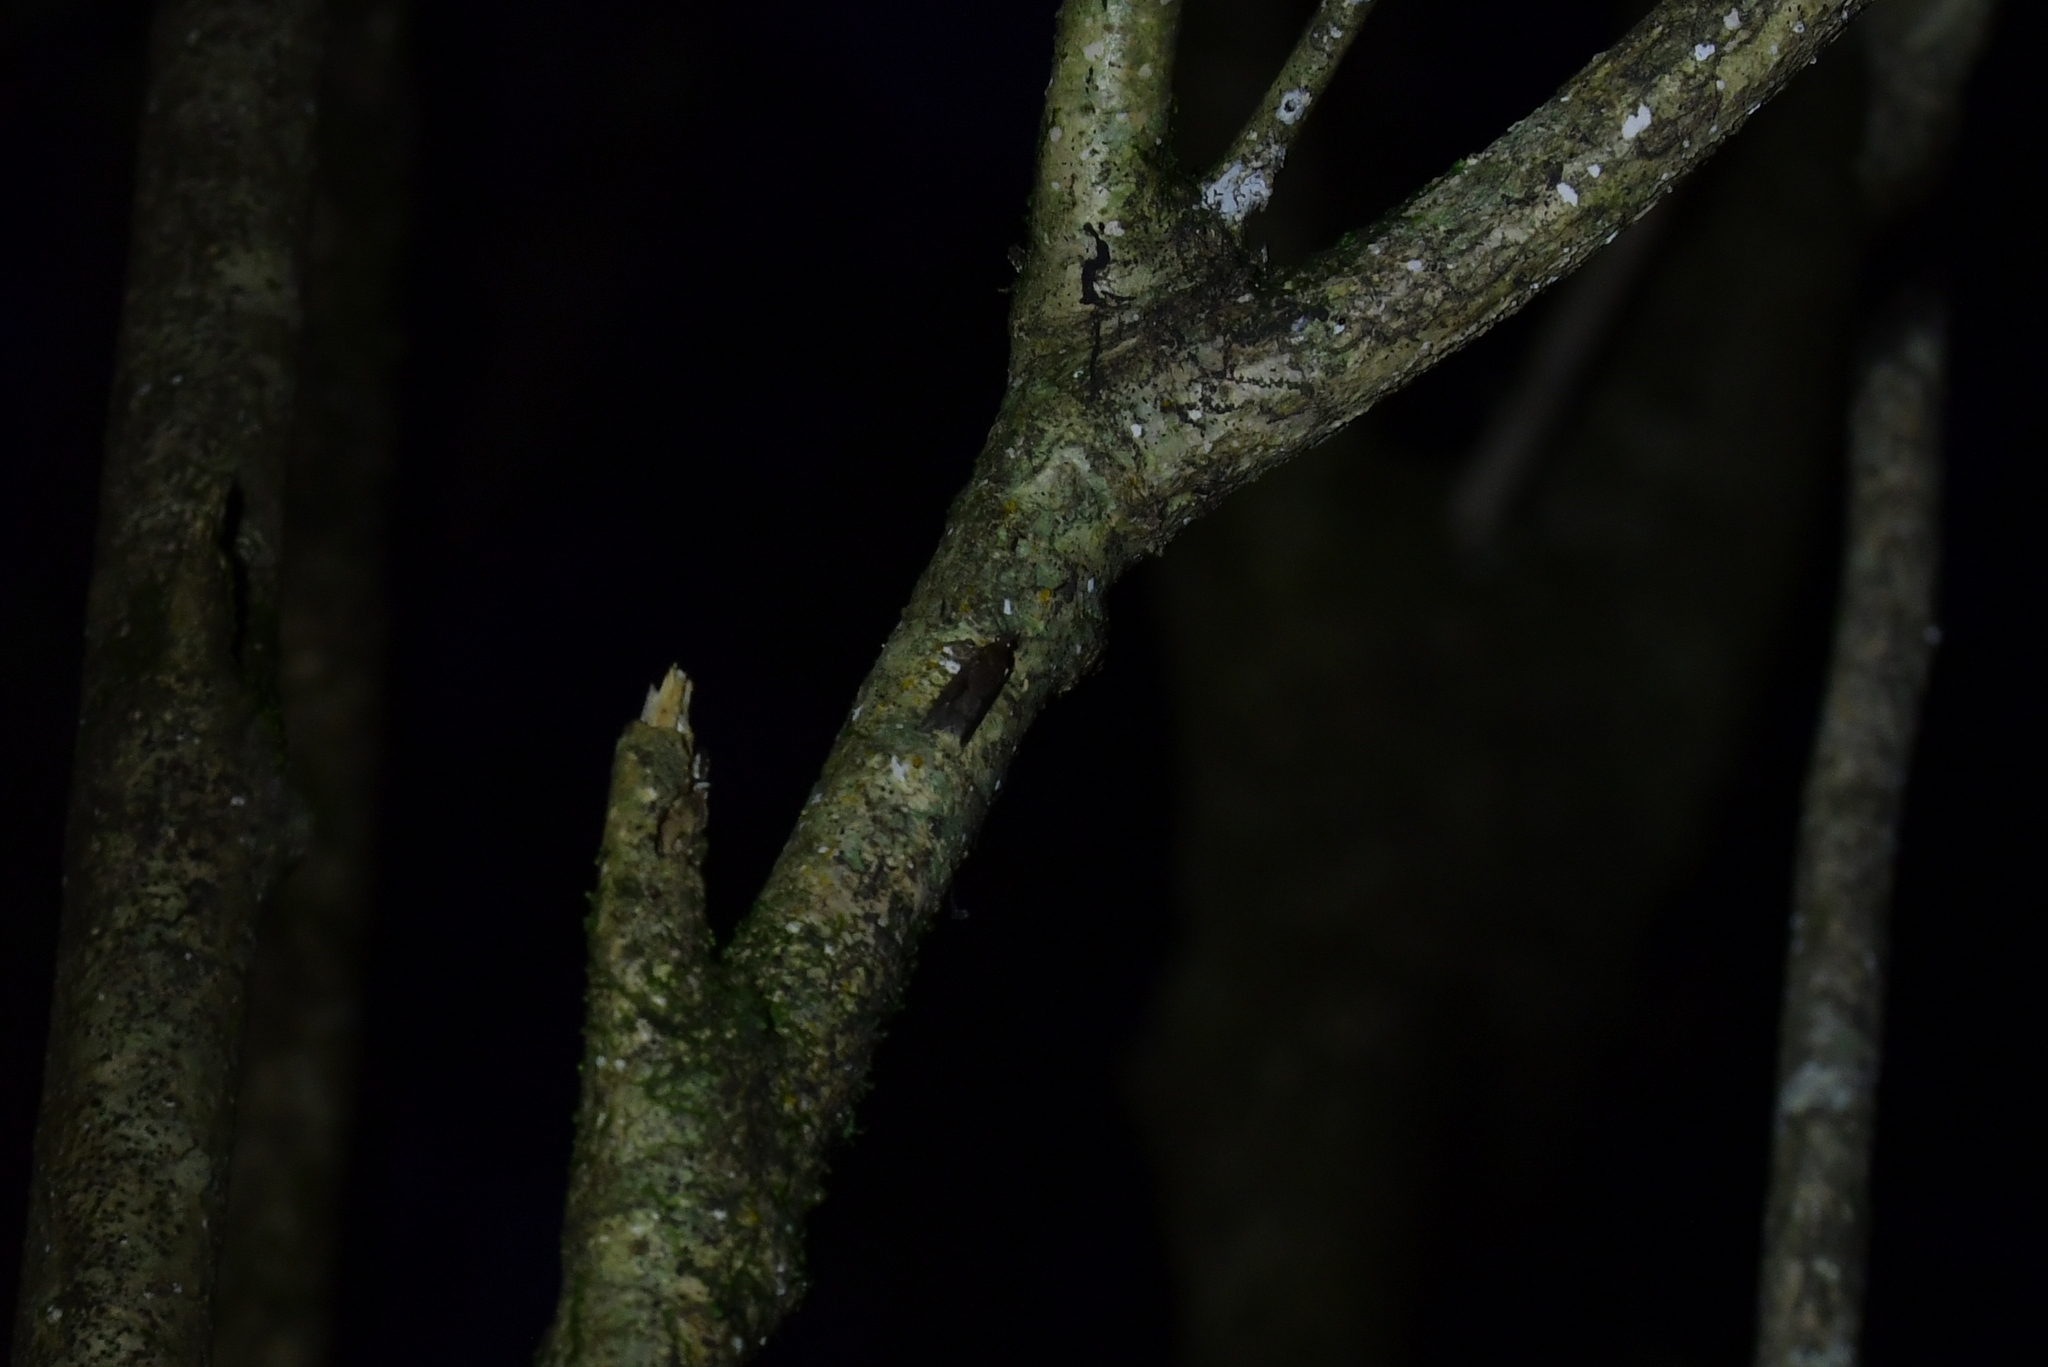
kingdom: Animalia
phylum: Arthropoda
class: Insecta
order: Lepidoptera
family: Tortricidae
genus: Cryptaspasma
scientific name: Cryptaspasma querula
